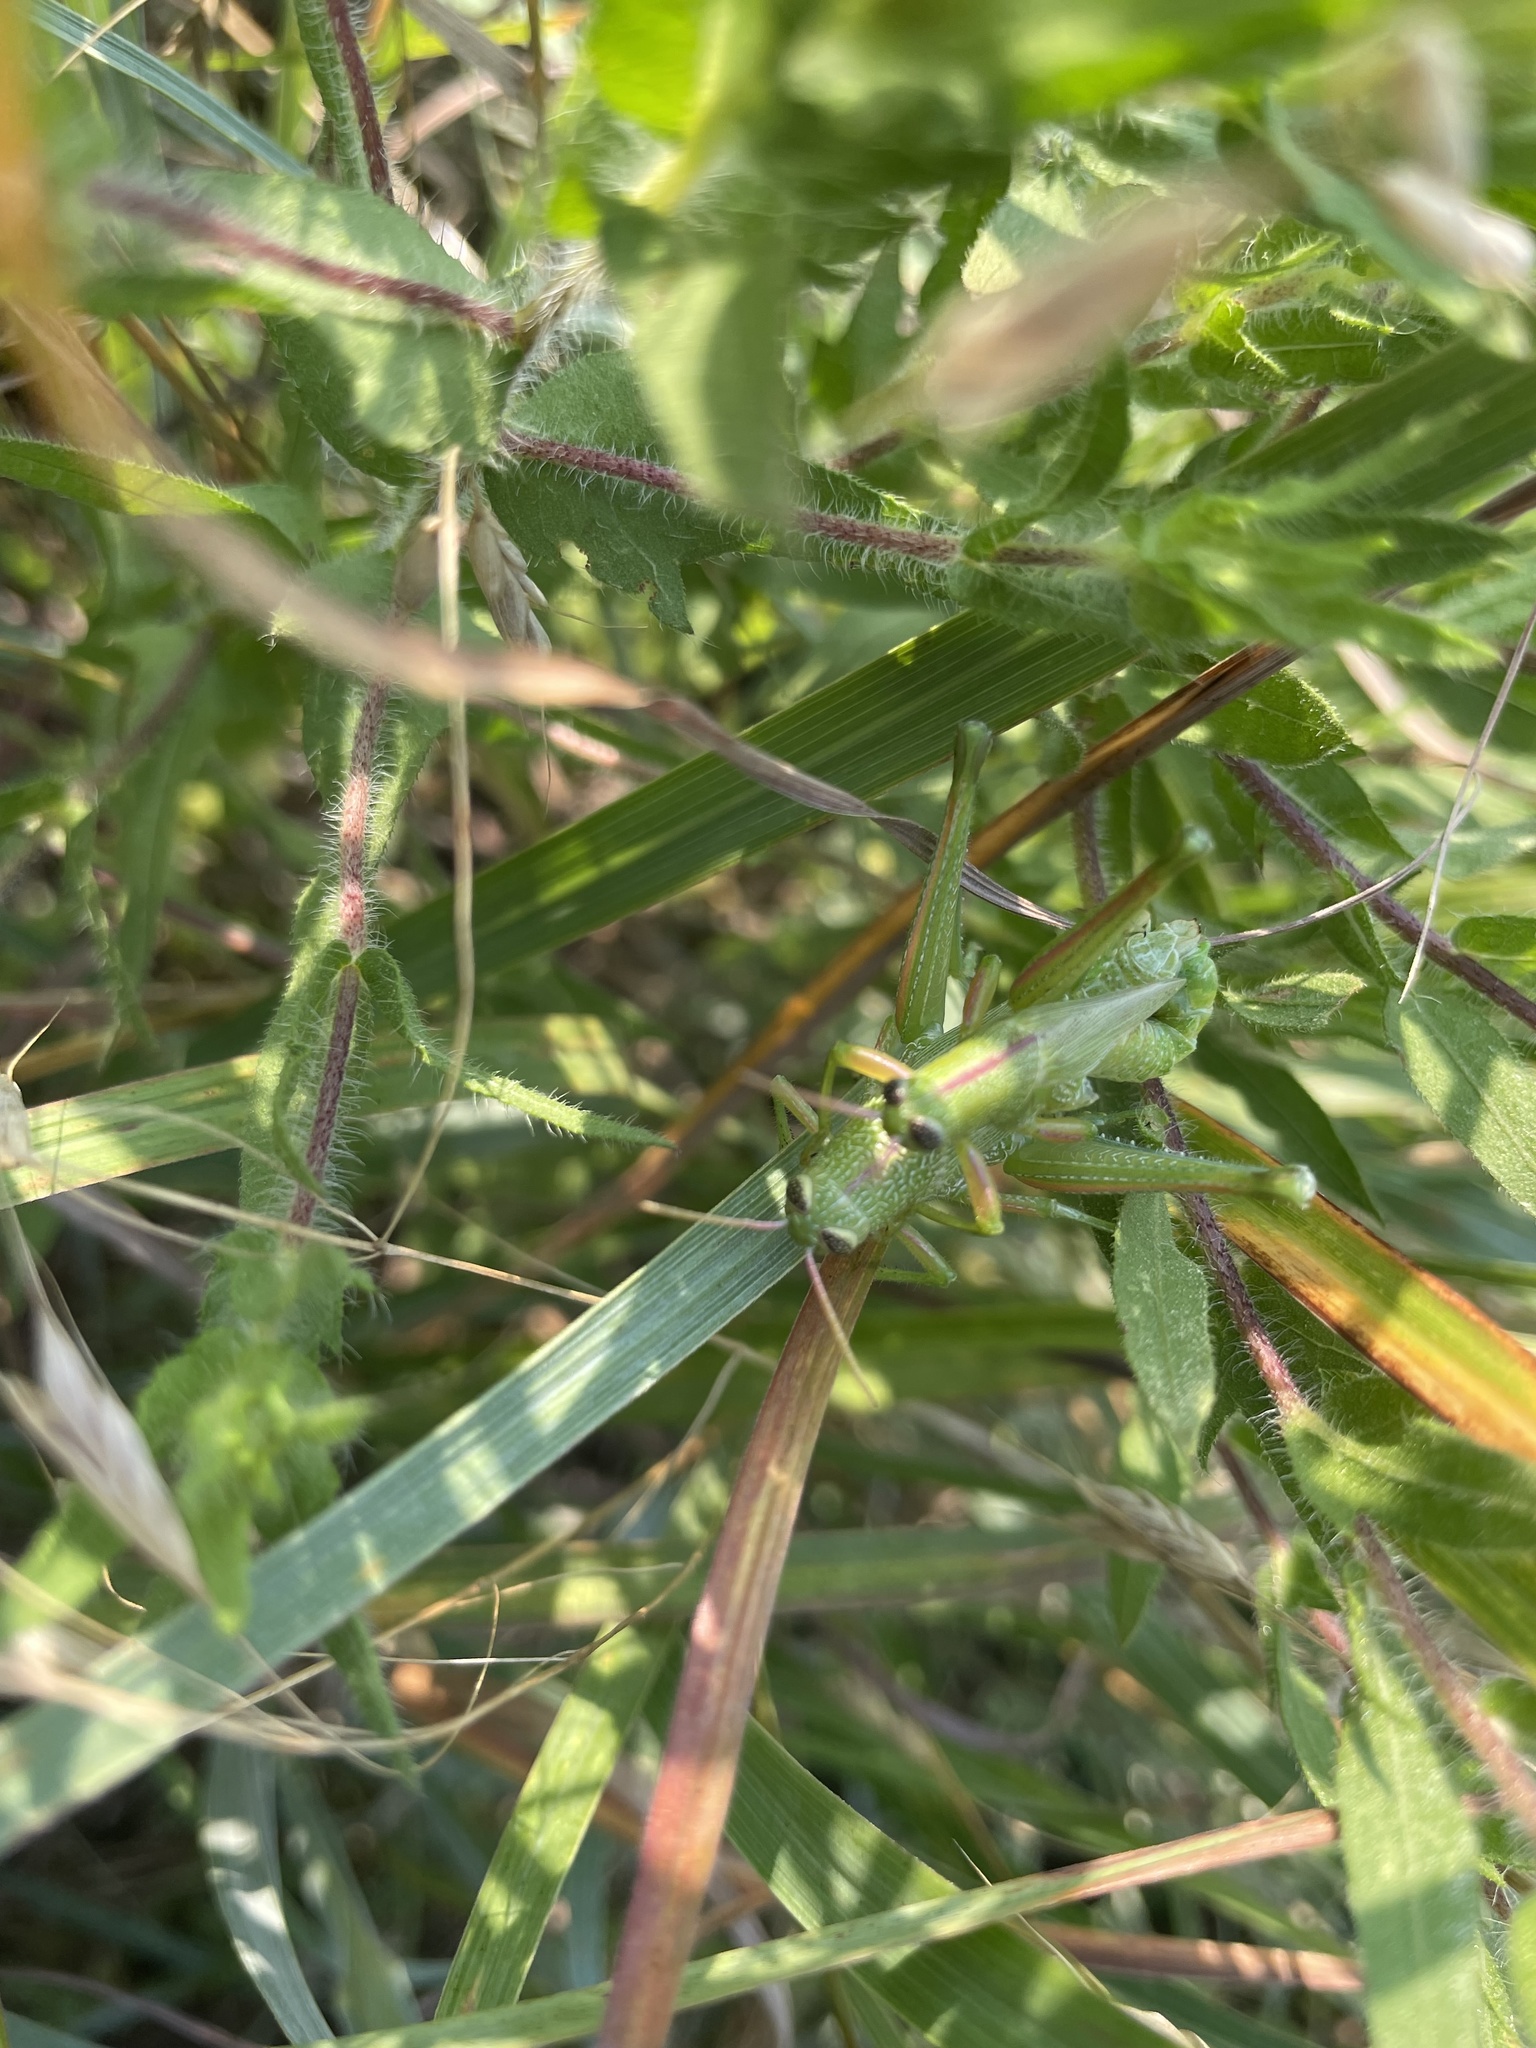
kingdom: Animalia
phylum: Arthropoda
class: Insecta
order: Orthoptera
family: Acrididae
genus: Hesperotettix
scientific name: Hesperotettix speciosus
